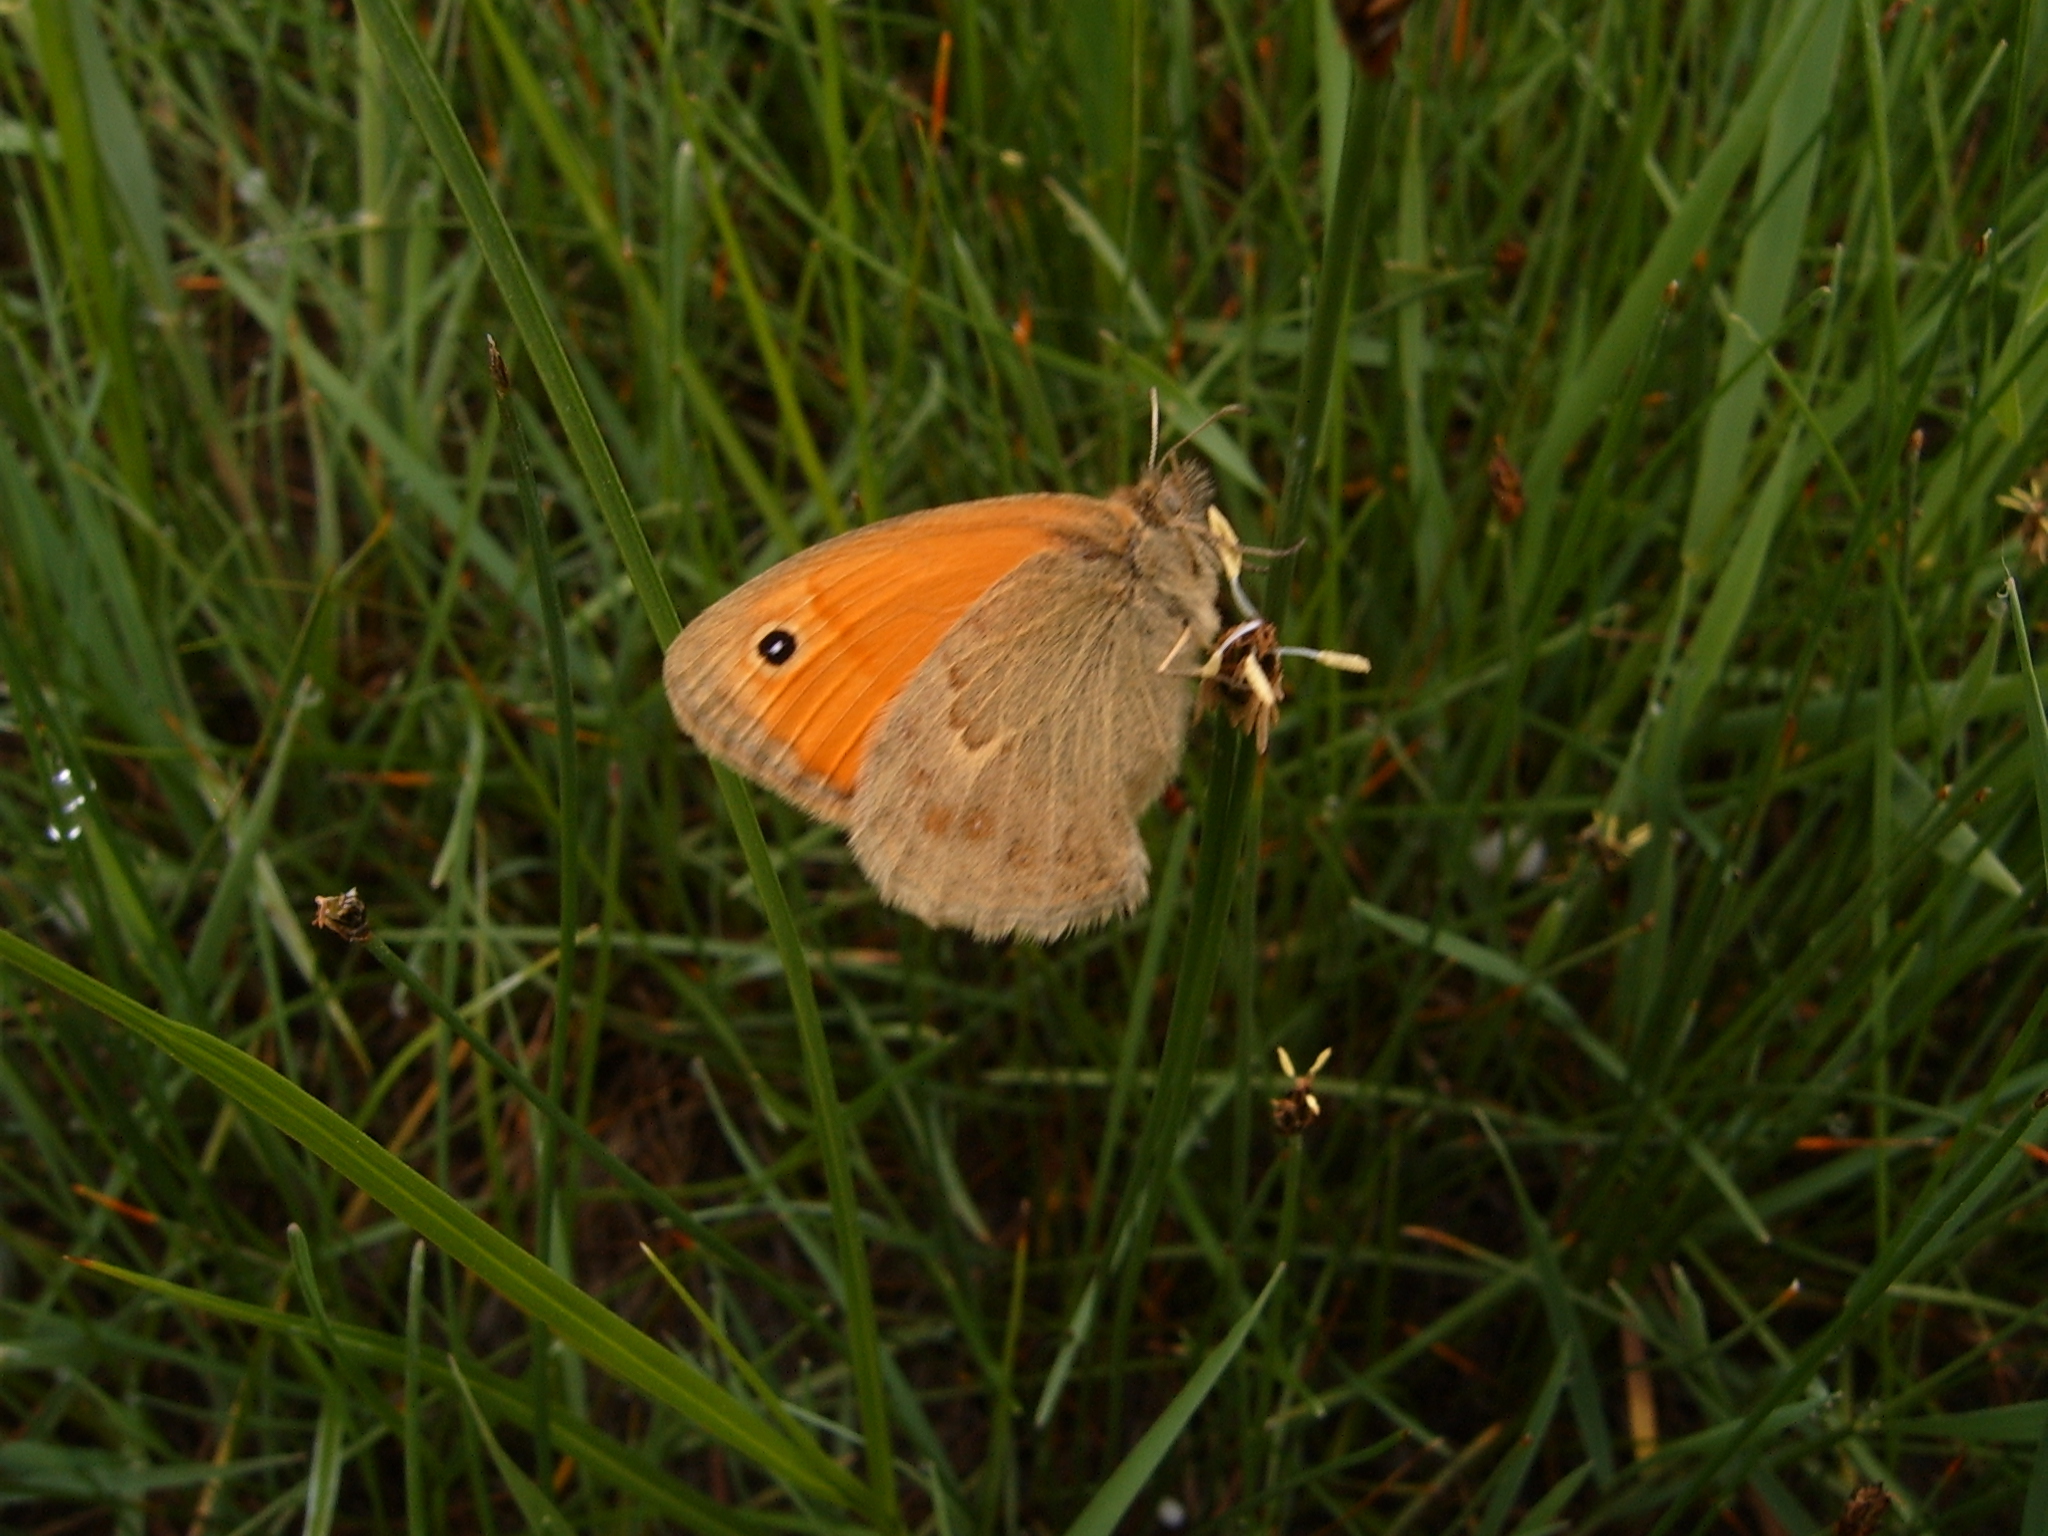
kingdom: Animalia
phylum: Arthropoda
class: Insecta
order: Lepidoptera
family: Nymphalidae
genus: Coenonympha
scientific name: Coenonympha pamphilus
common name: Small heath
